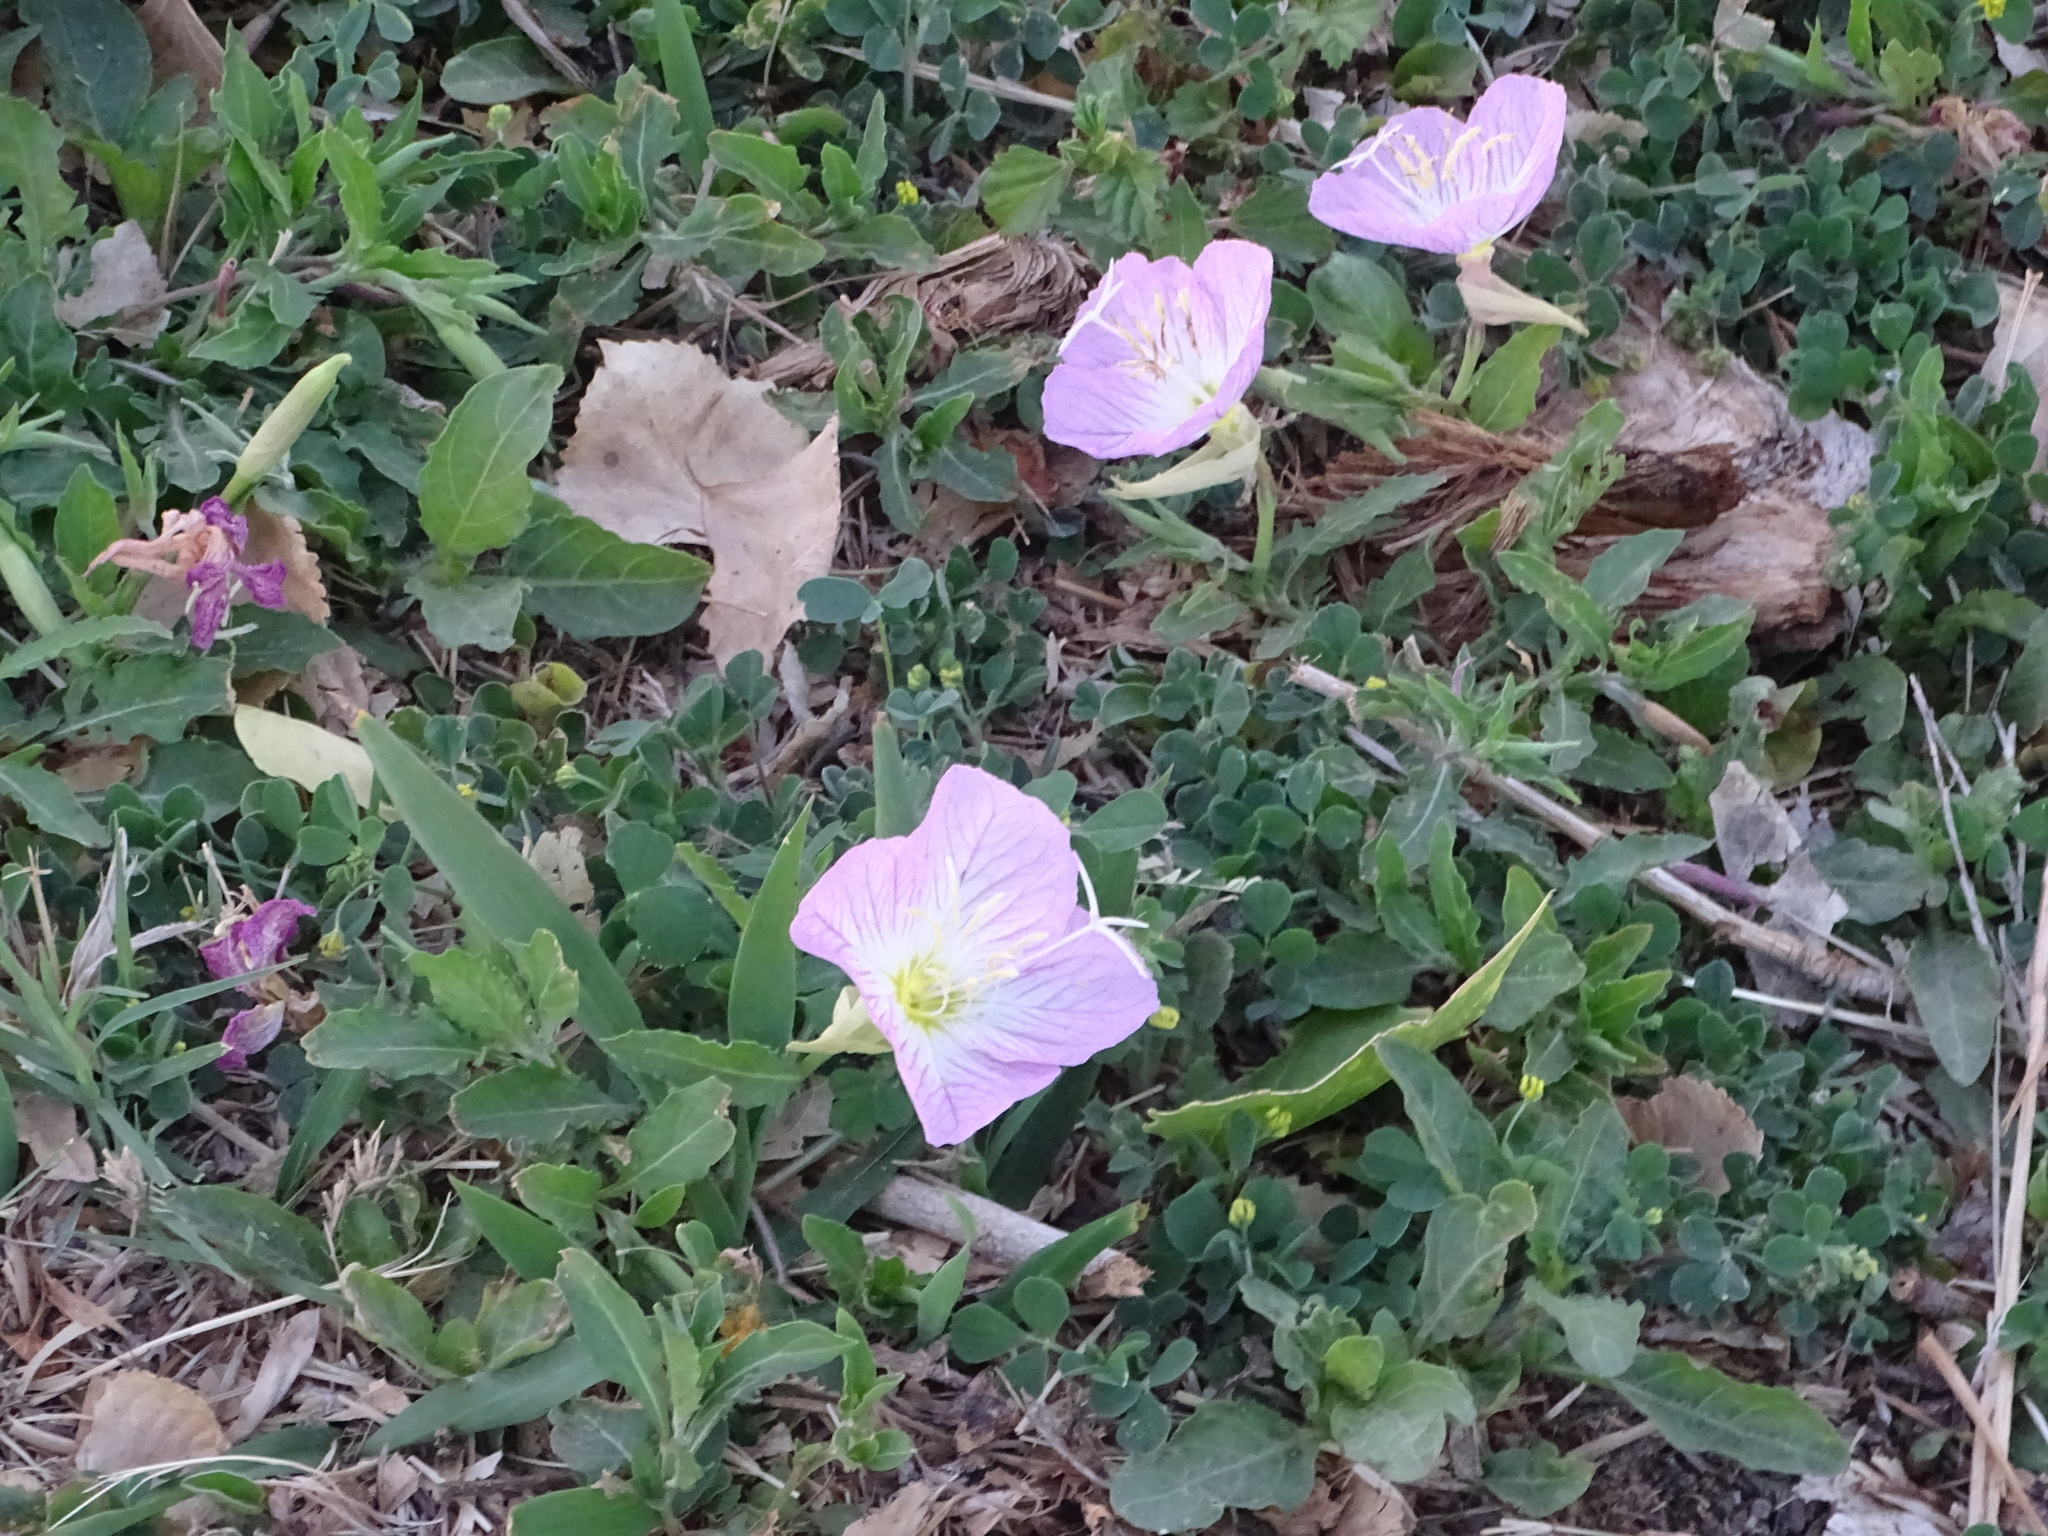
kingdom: Plantae
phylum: Tracheophyta
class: Magnoliopsida
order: Myrtales
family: Onagraceae
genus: Oenothera
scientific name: Oenothera speciosa
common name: White evening-primrose
